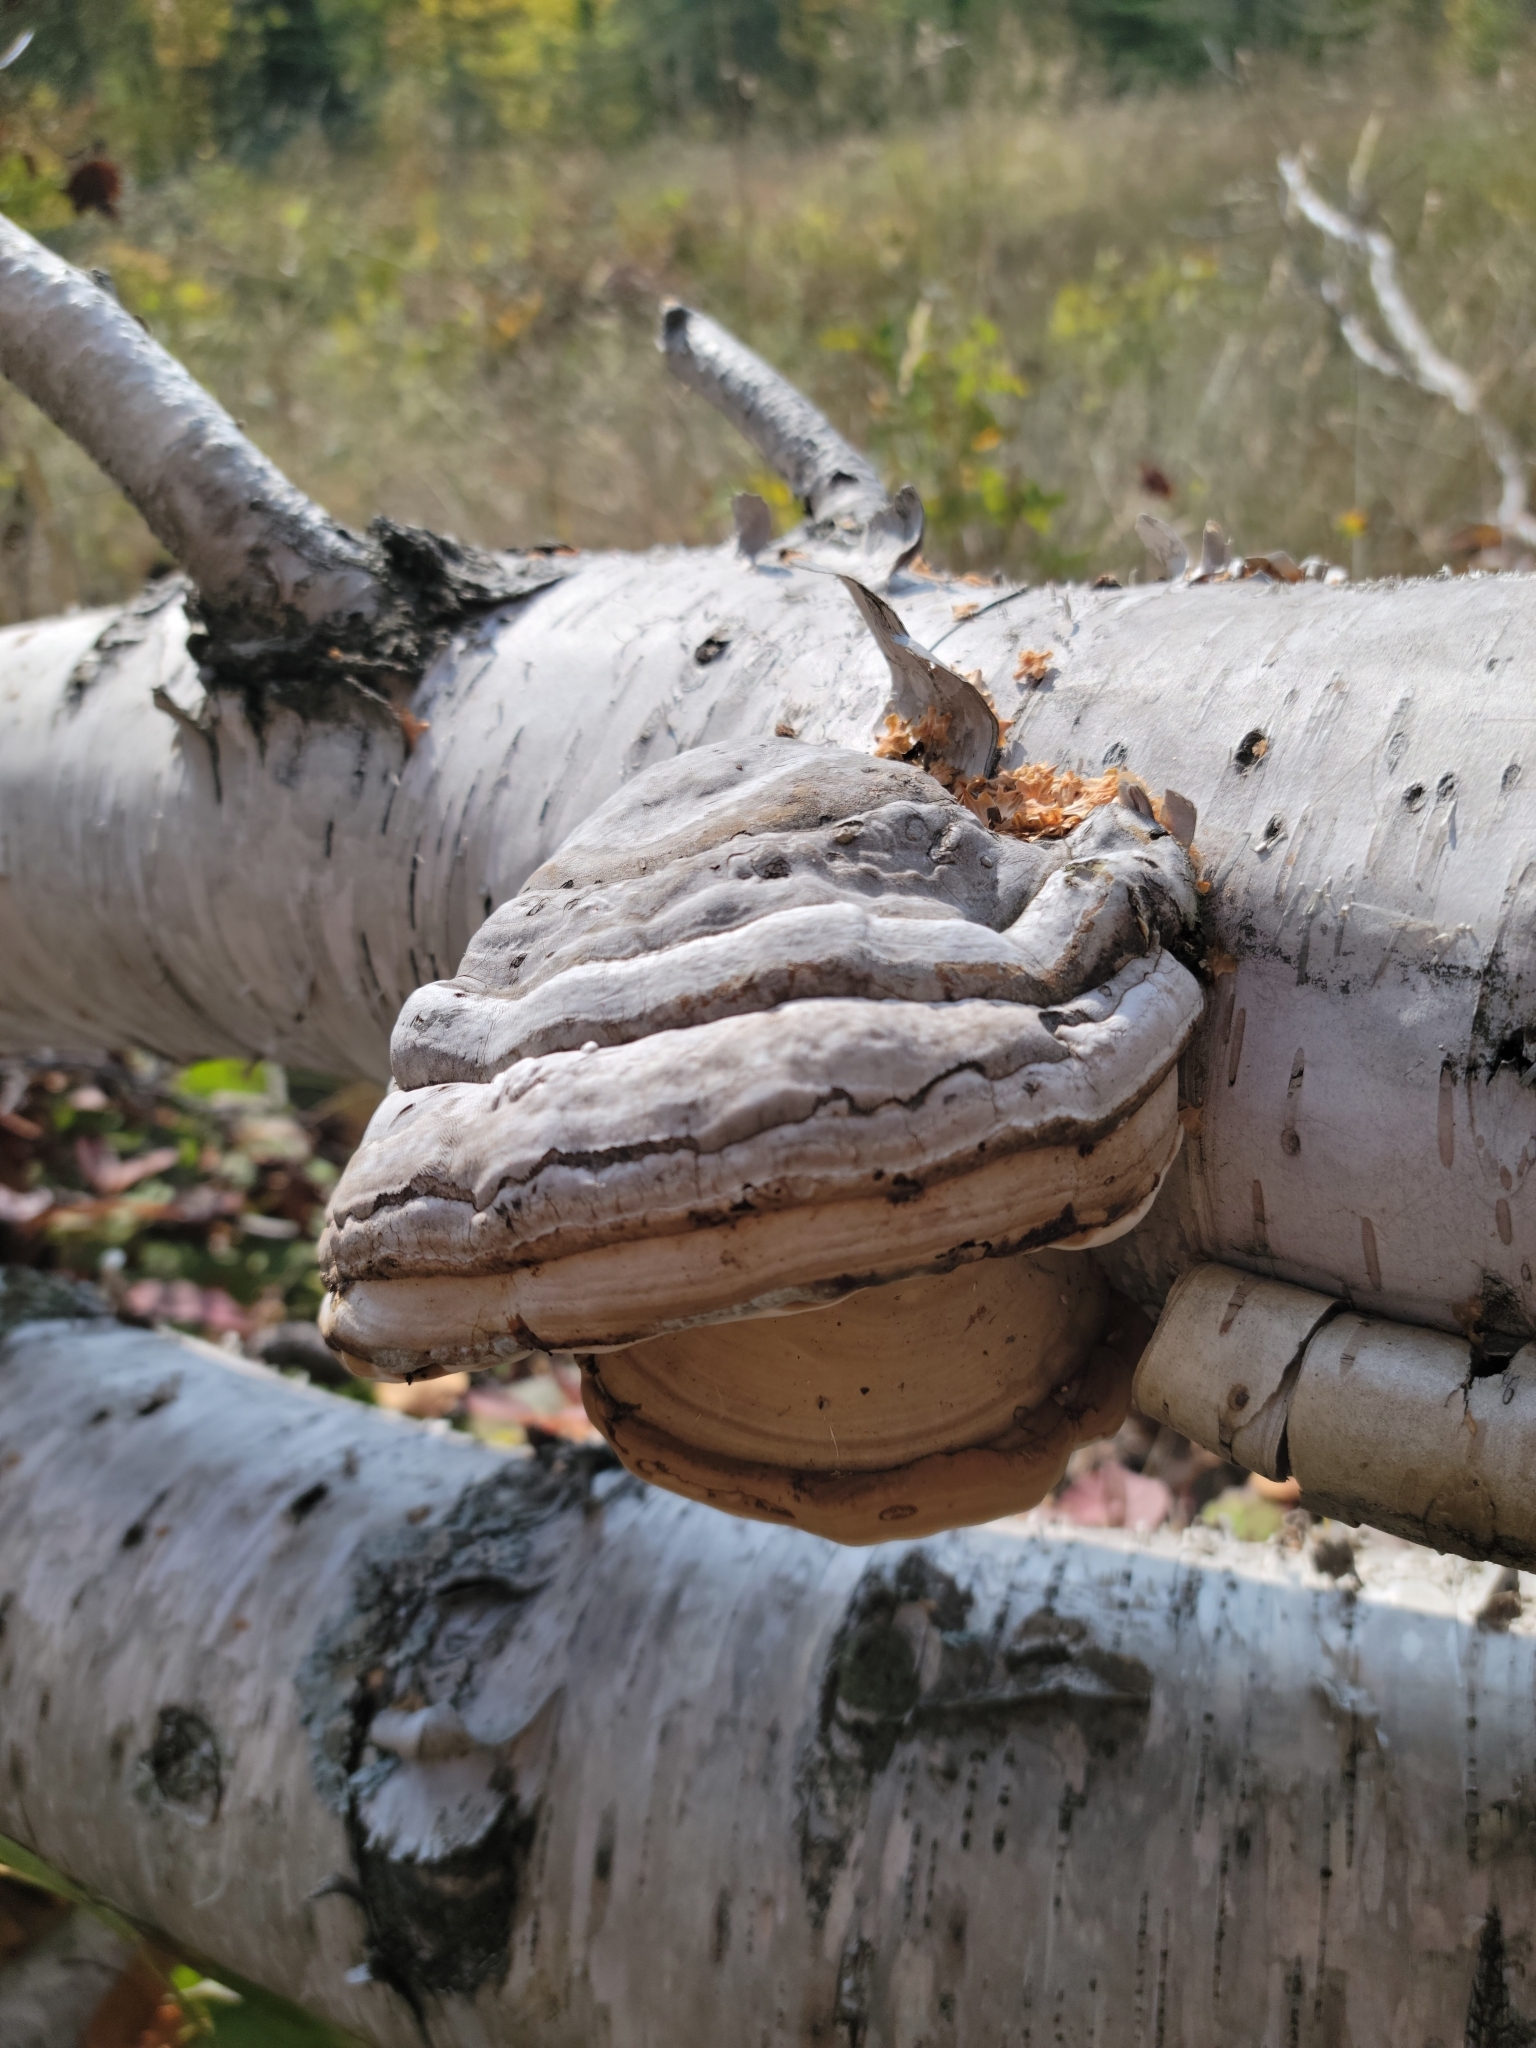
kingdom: Fungi
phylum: Basidiomycota
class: Agaricomycetes
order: Polyporales
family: Polyporaceae
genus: Fomes
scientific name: Fomes fomentarius
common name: Hoof fungus
